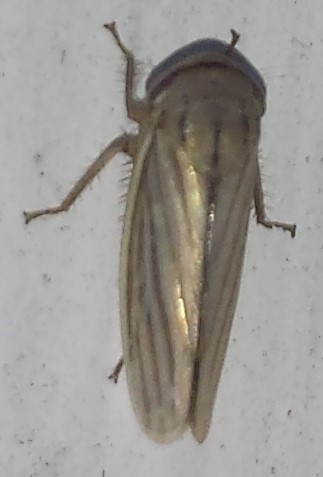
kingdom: Animalia
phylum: Arthropoda
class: Insecta
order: Hemiptera
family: Cicadellidae
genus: Athysanus
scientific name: Athysanus argentarius
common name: Silver leafhopper
